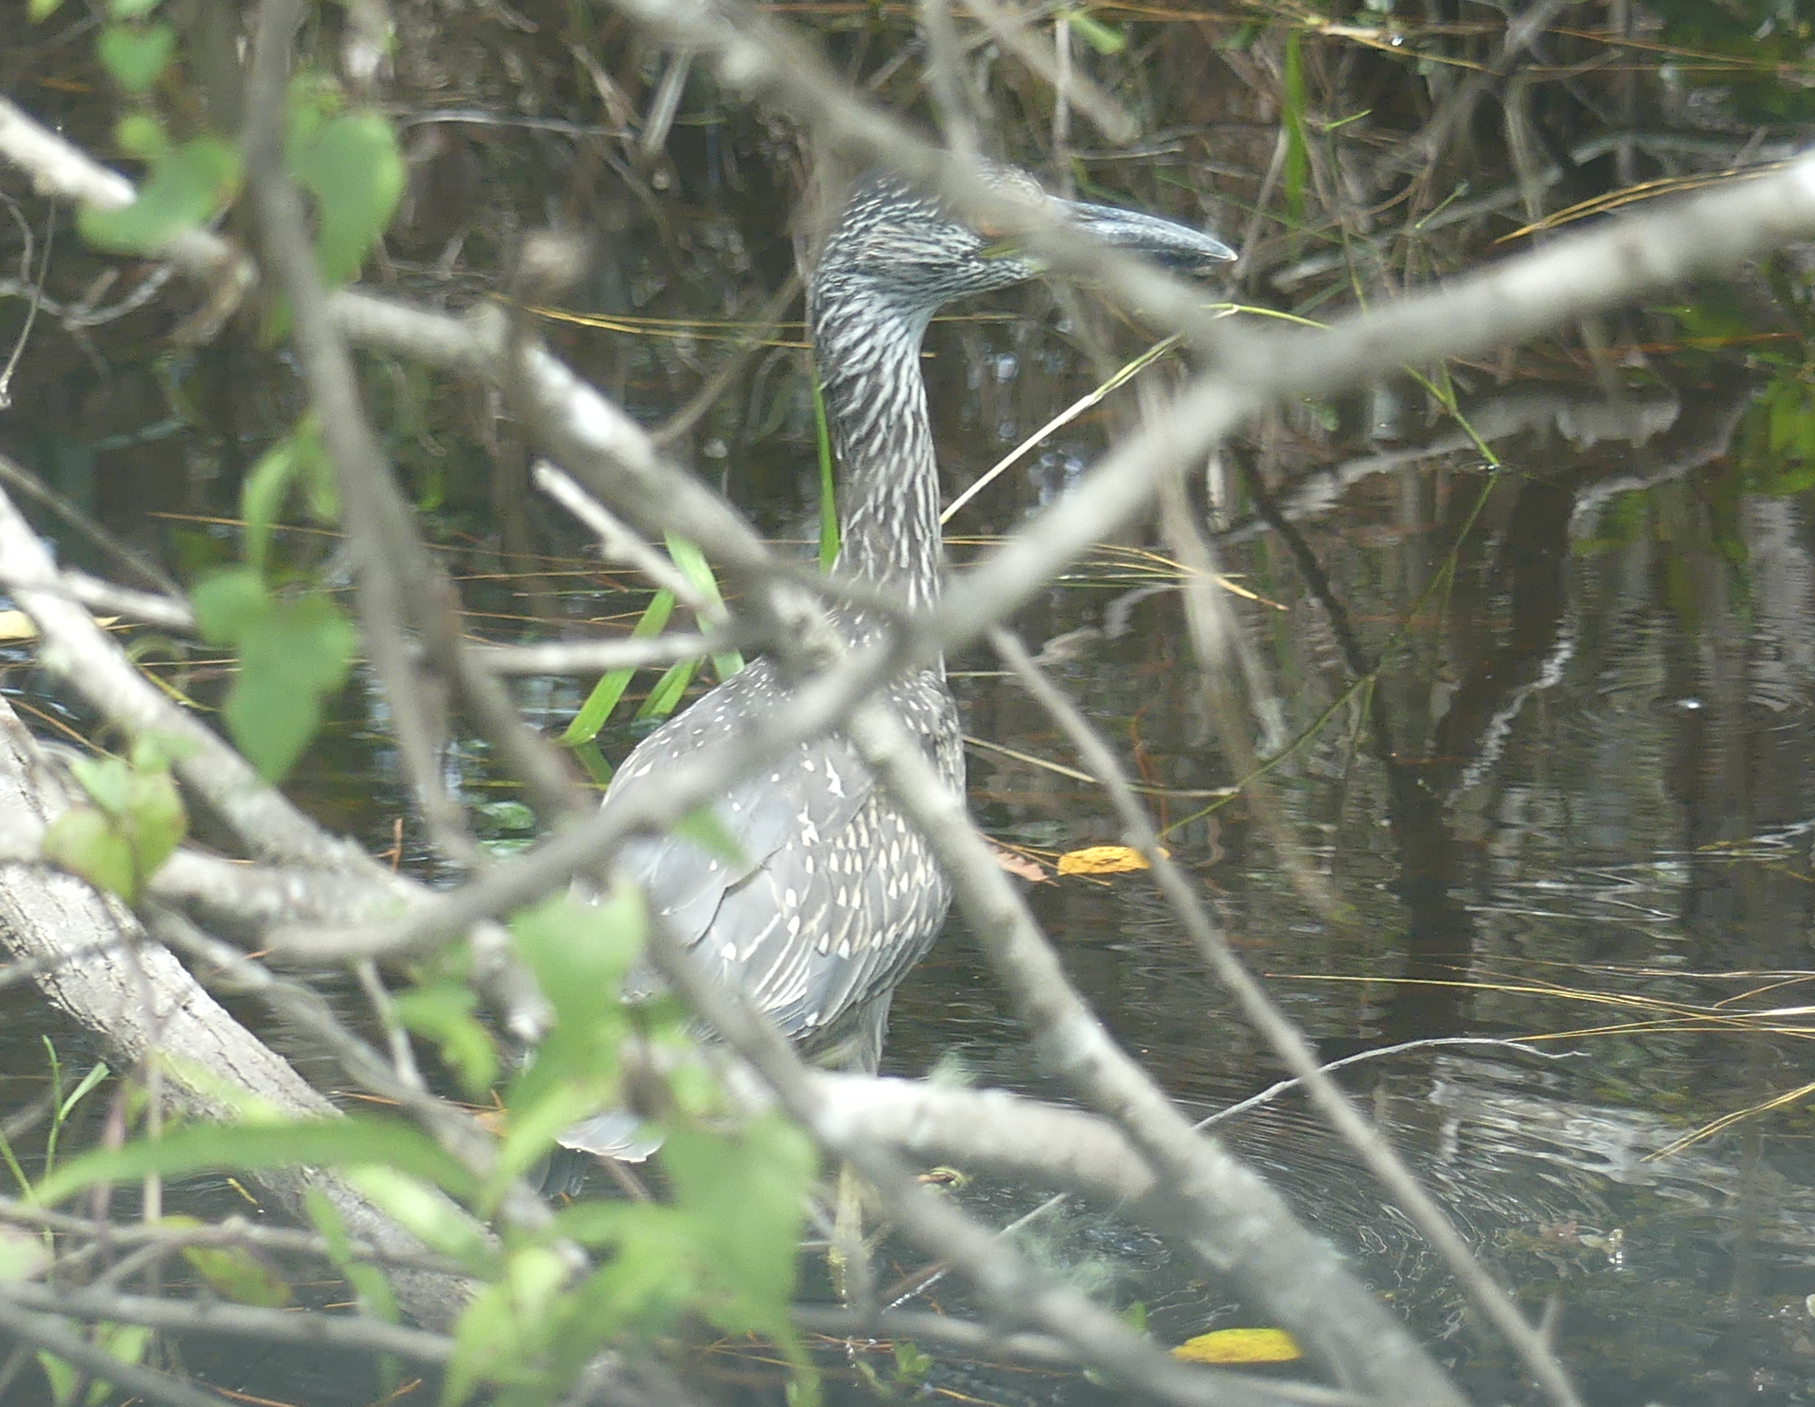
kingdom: Animalia
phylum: Chordata
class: Aves
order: Pelecaniformes
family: Ardeidae
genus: Nyctanassa
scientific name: Nyctanassa violacea
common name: Yellow-crowned night heron
